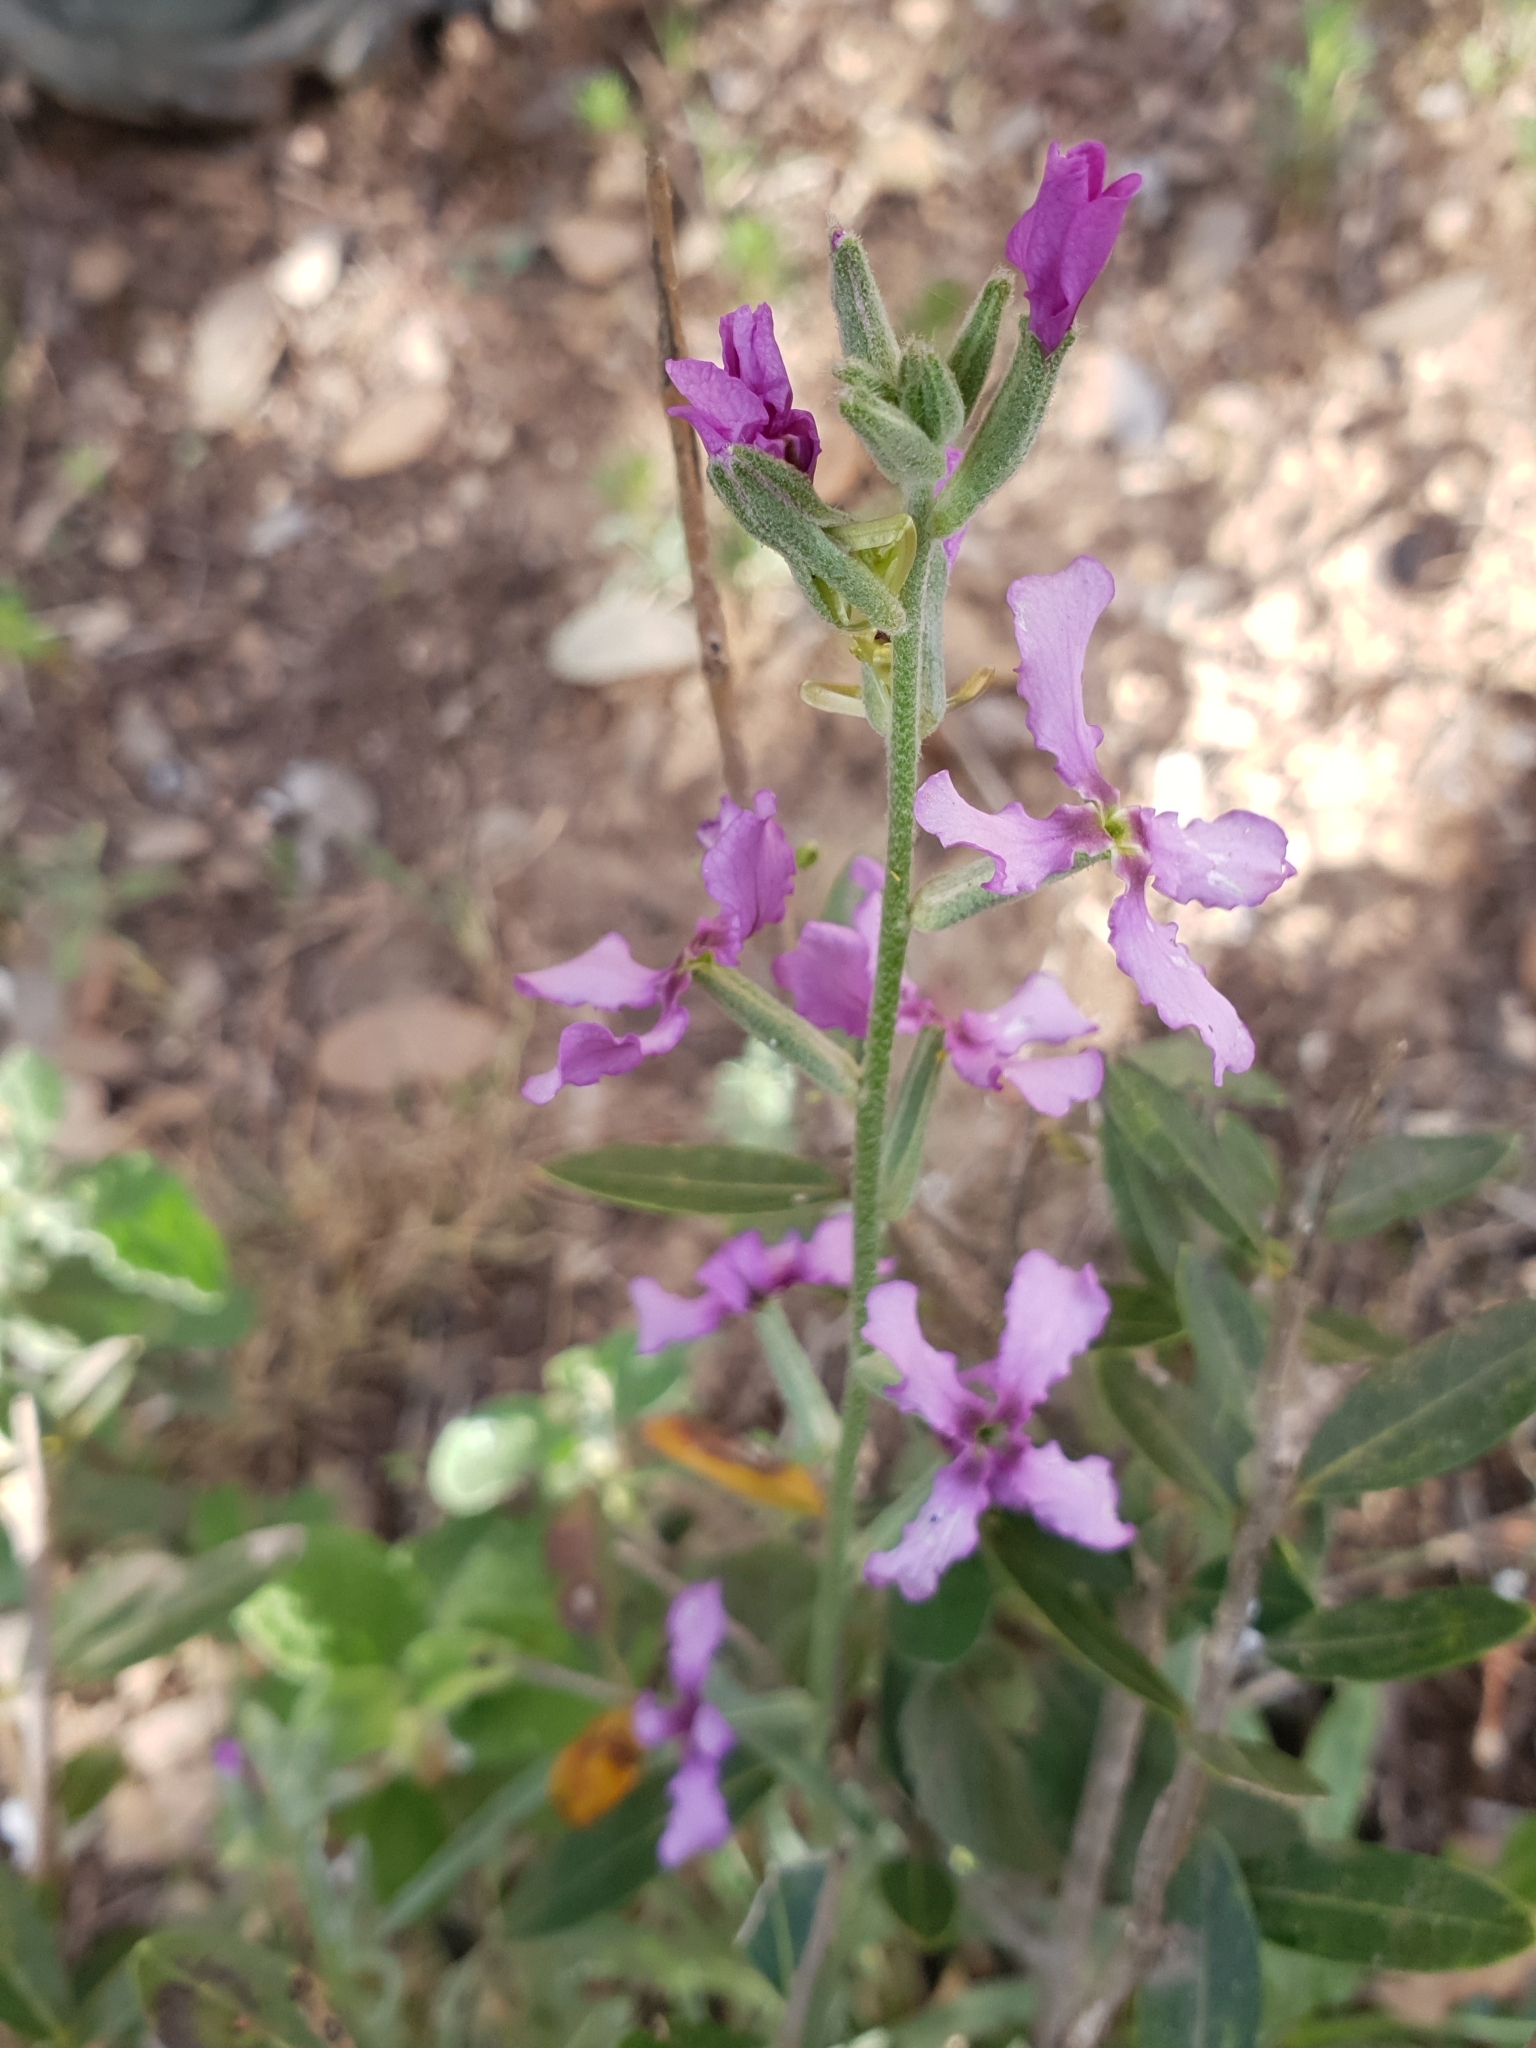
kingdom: Plantae
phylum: Tracheophyta
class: Magnoliopsida
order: Brassicales
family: Brassicaceae
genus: Matthiola
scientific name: Matthiola fruticulosa
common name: Sad stock
